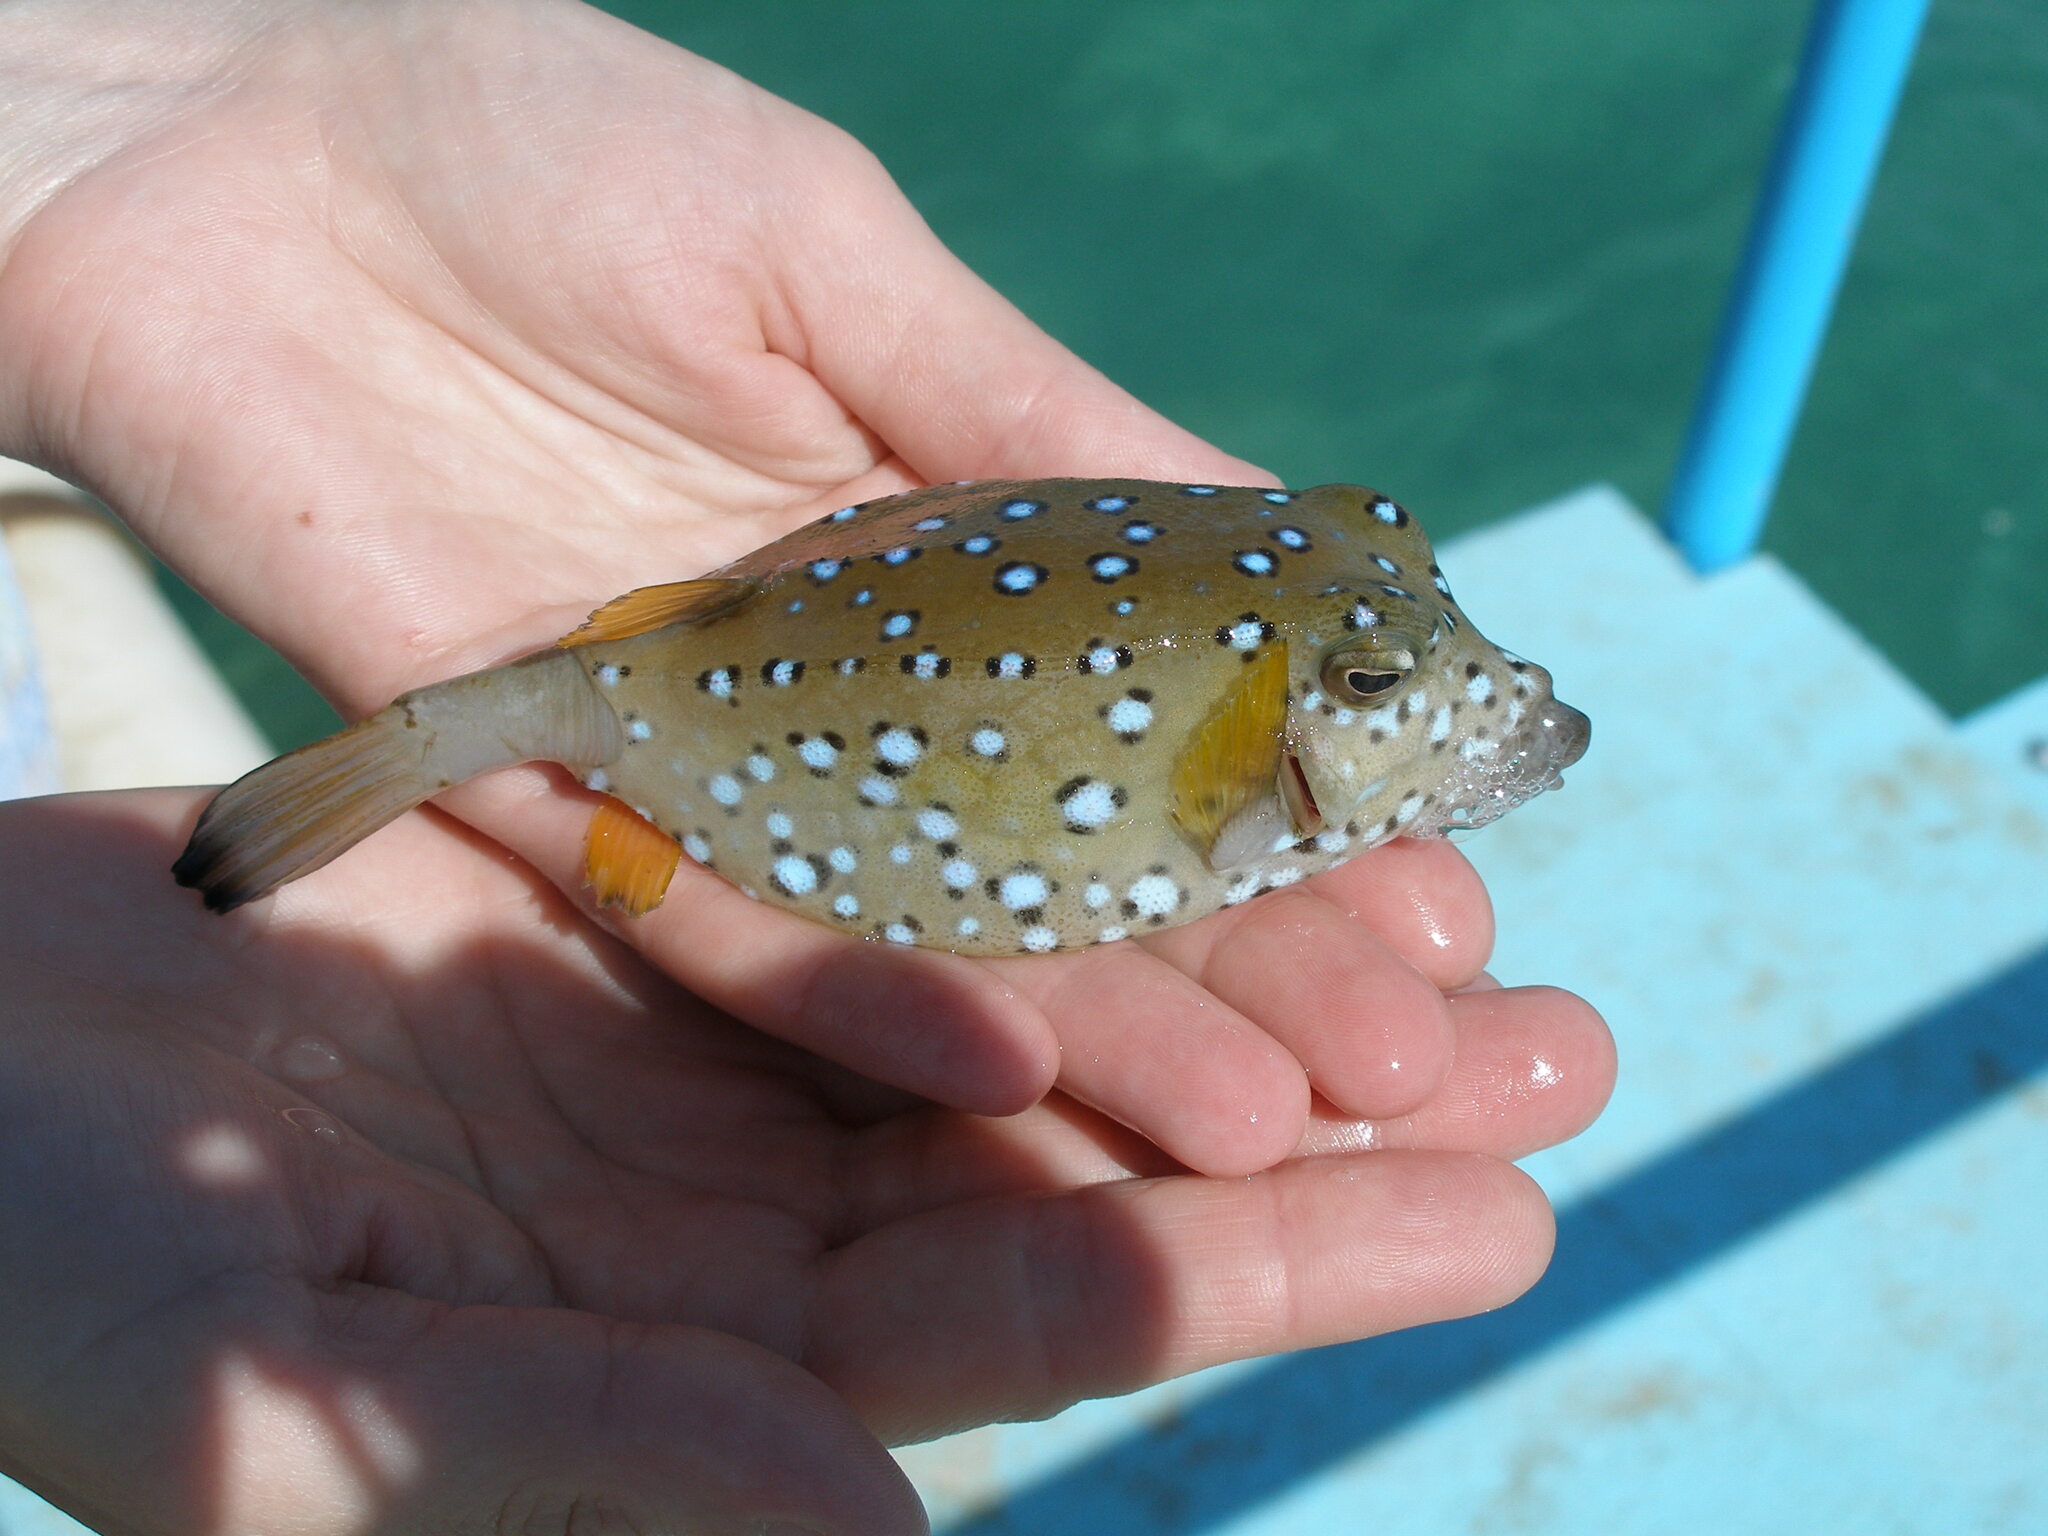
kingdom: Animalia
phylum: Chordata
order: Tetraodontiformes
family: Ostraciidae
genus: Ostracion
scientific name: Ostracion cubicus
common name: Cube trunkfish
